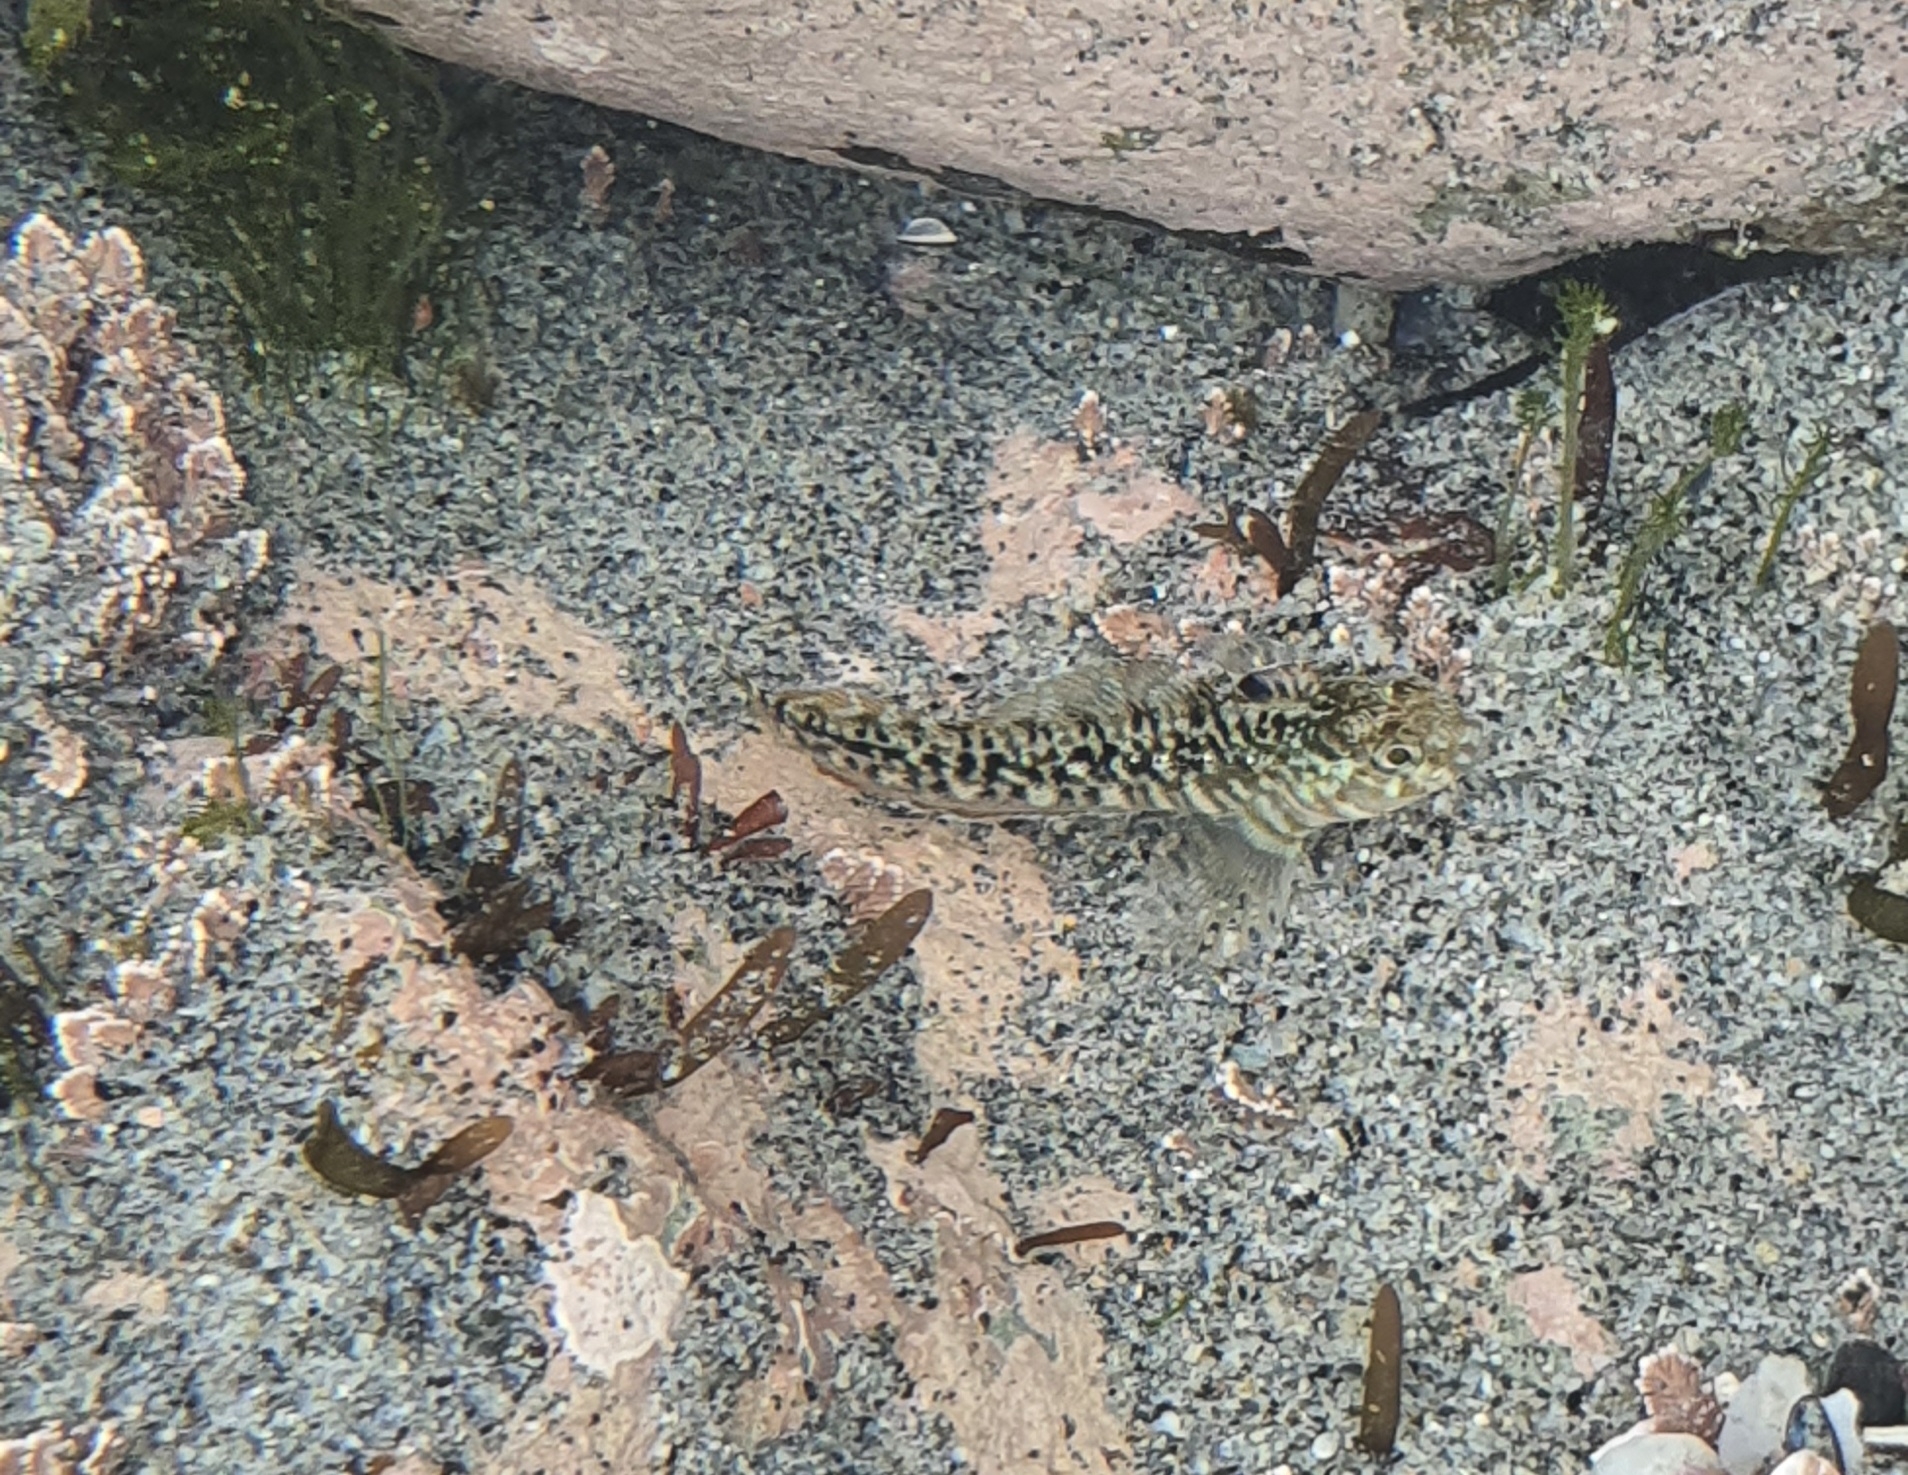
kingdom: Animalia
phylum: Chordata
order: Perciformes
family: Tripterygiidae
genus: Forsterygion
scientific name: Forsterygion gymnotum
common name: Multifid-tentacled robust triplefin
